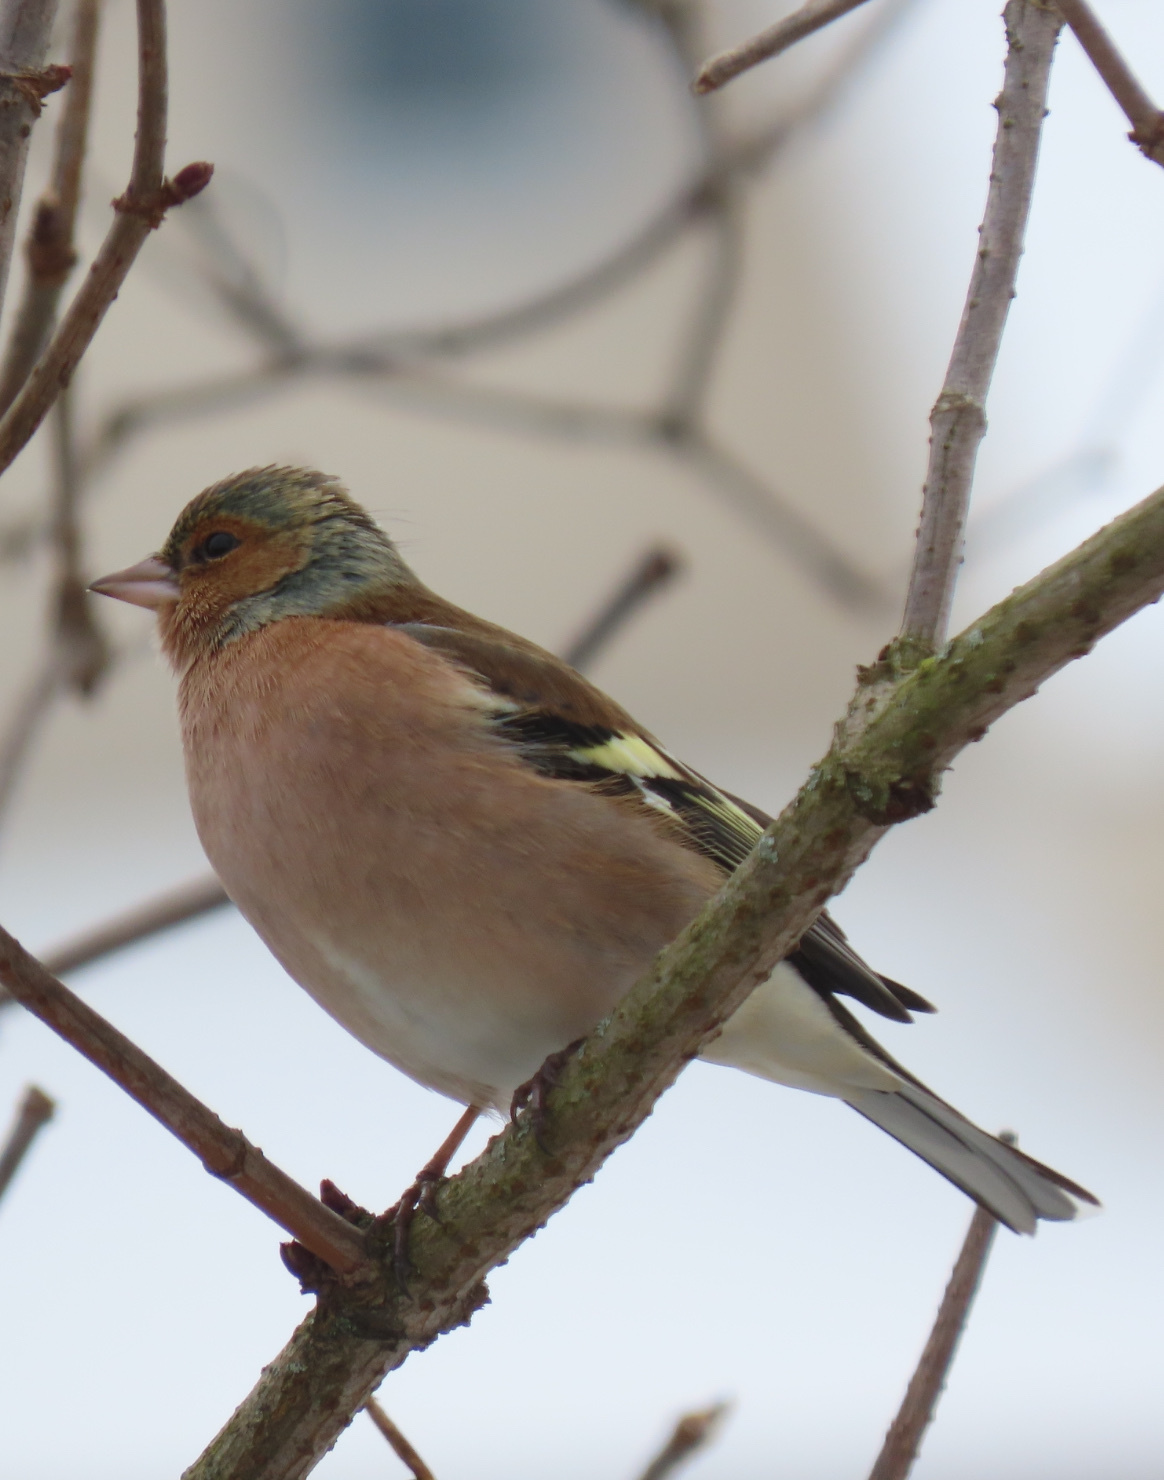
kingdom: Animalia
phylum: Chordata
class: Aves
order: Passeriformes
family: Fringillidae
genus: Fringilla
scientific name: Fringilla coelebs
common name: Common chaffinch
